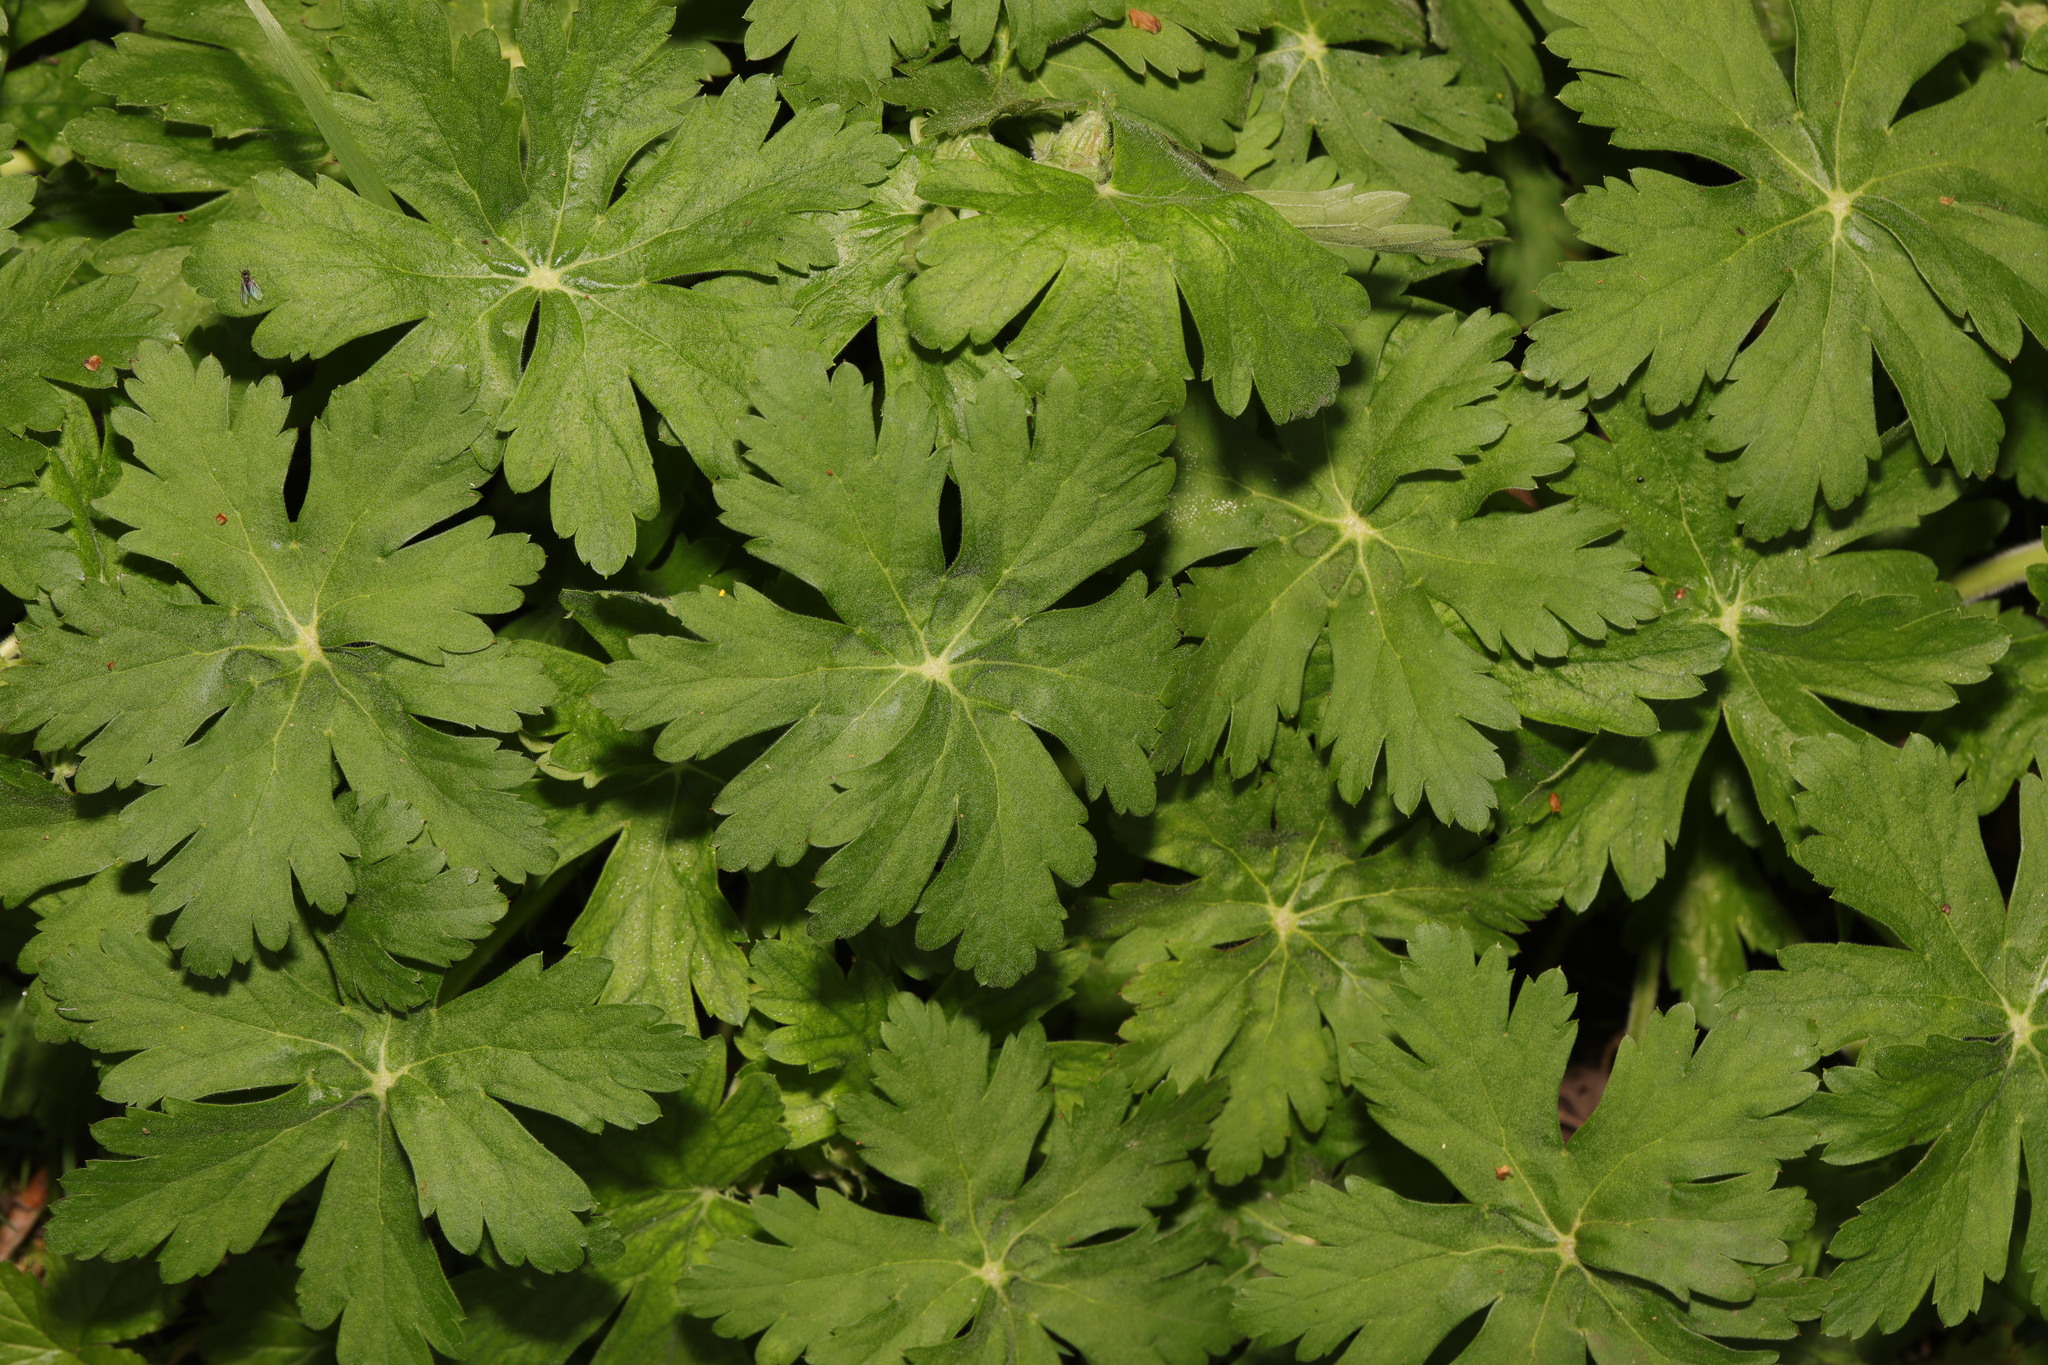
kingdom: Plantae
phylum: Tracheophyta
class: Magnoliopsida
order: Geraniales
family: Geraniaceae
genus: Geranium
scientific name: Geranium macrorrhizum
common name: Rock crane's-bill
